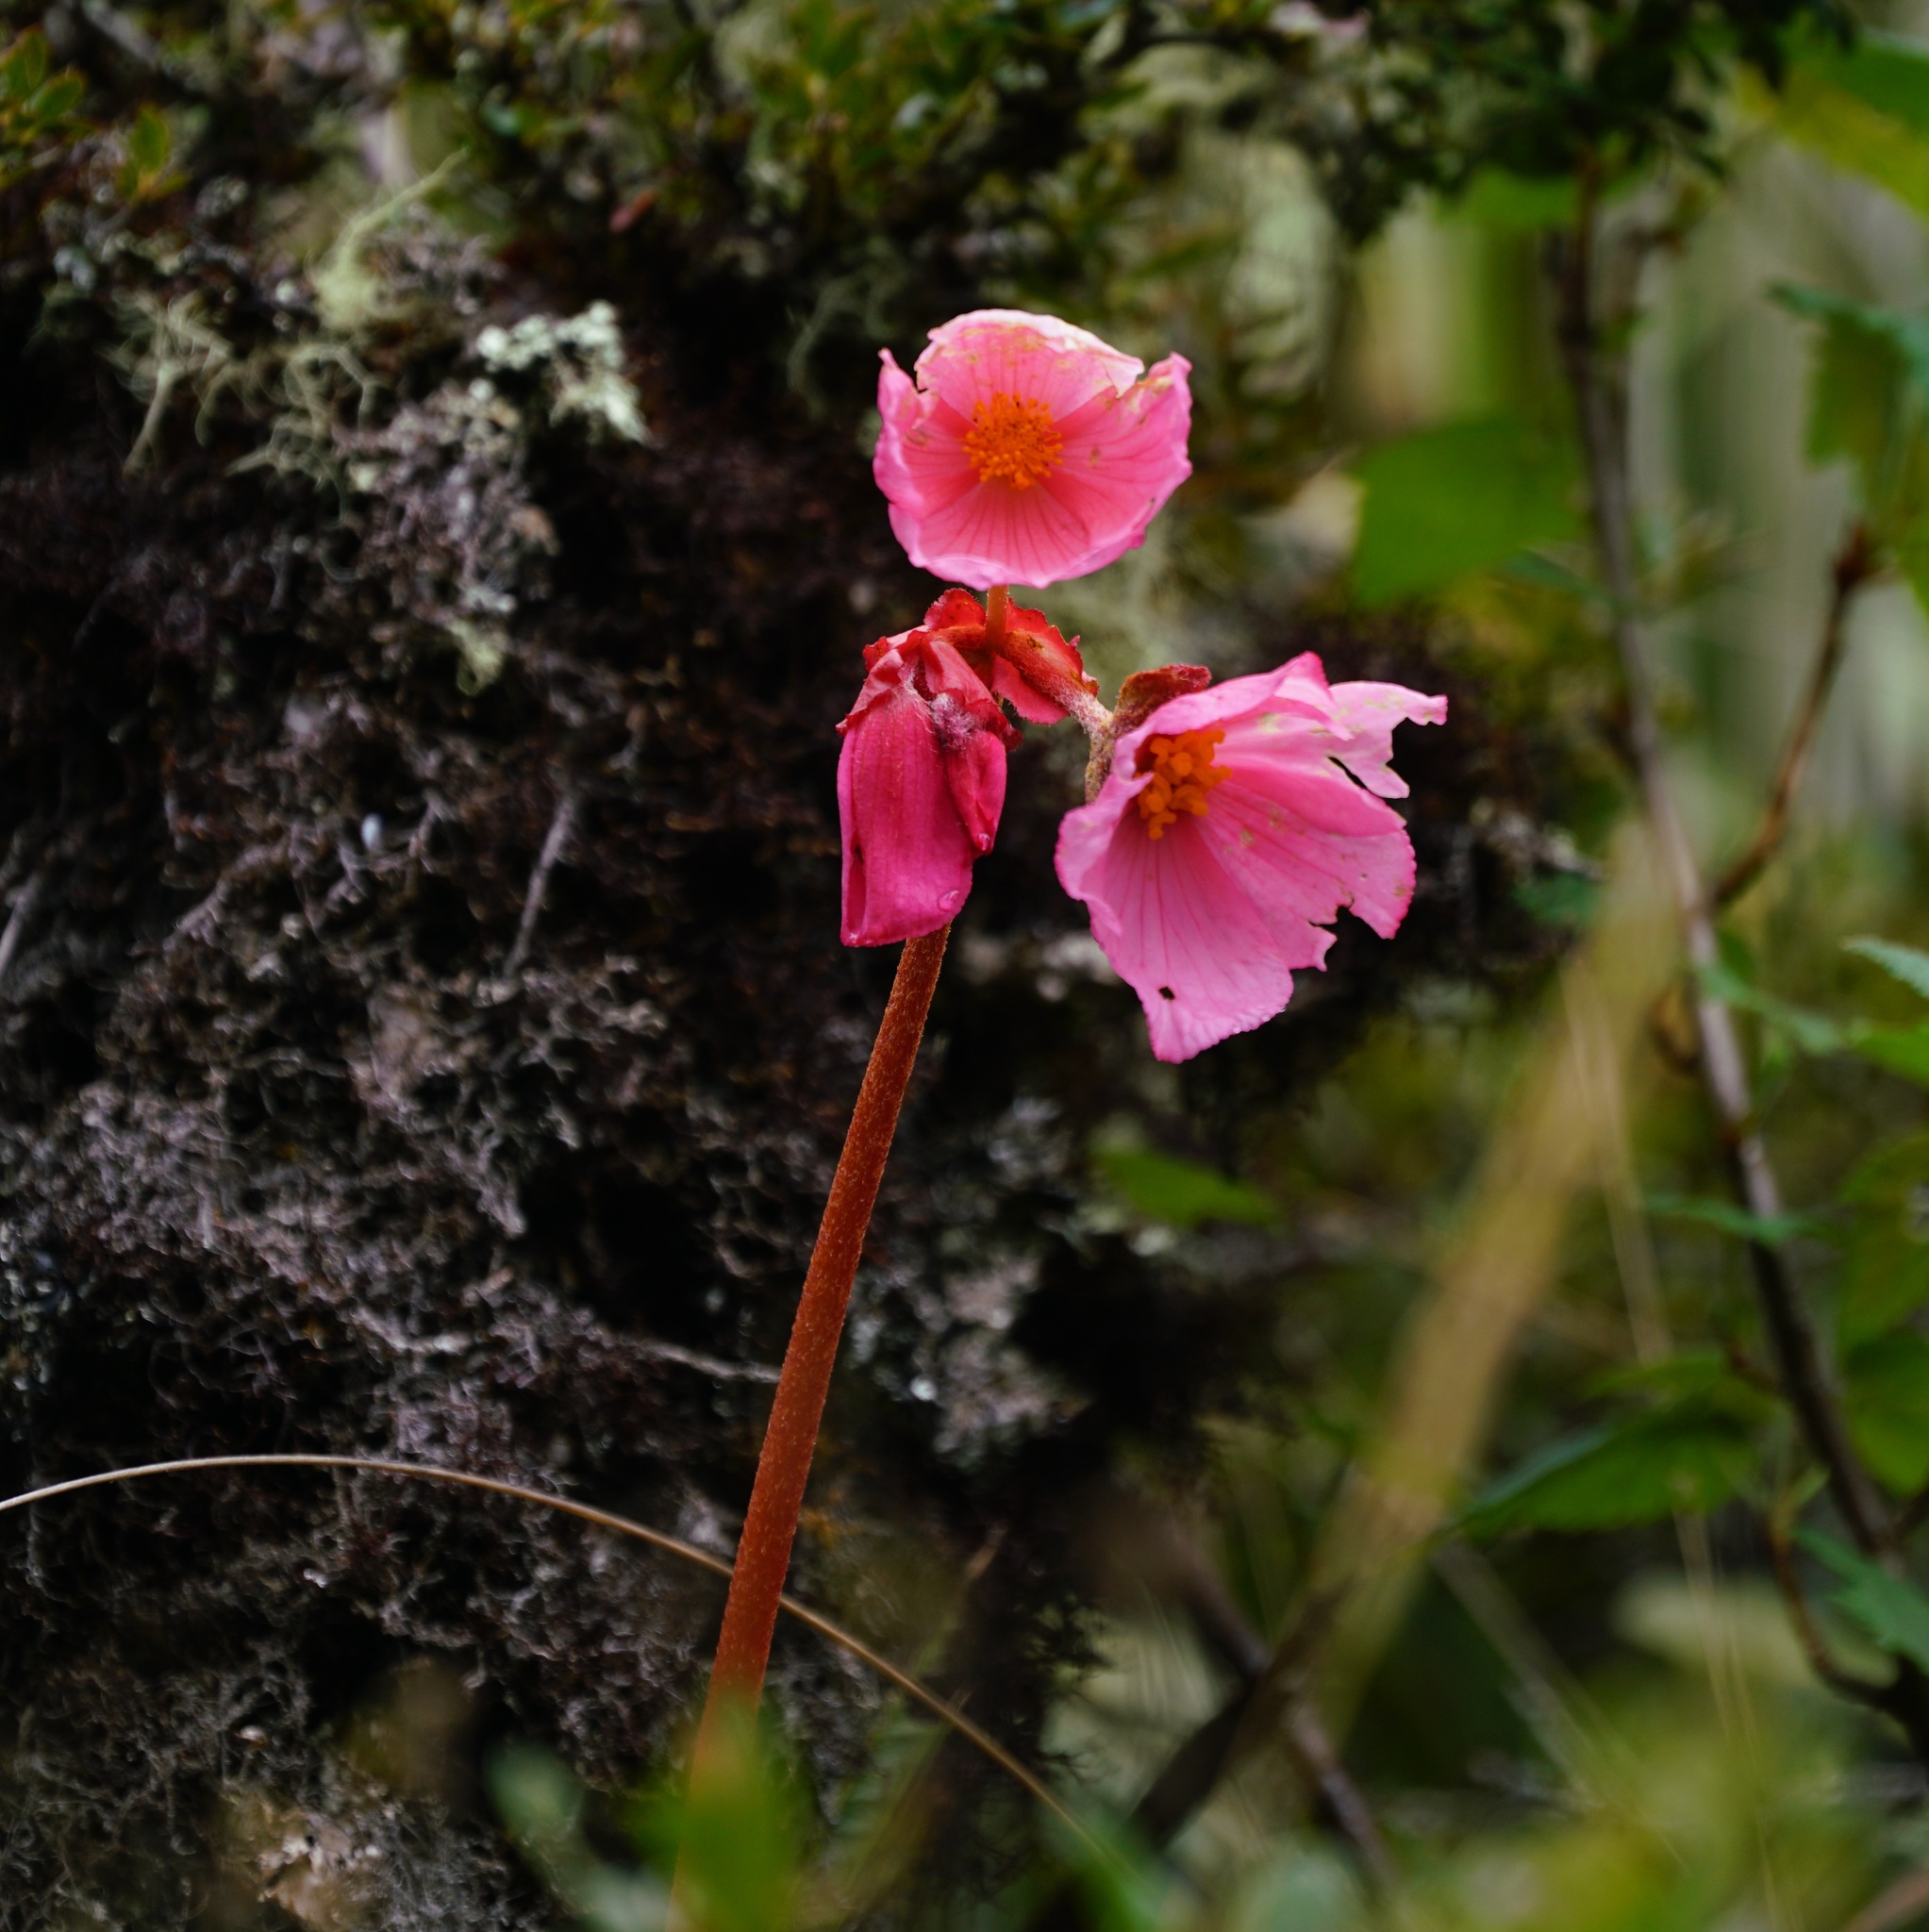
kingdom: Plantae
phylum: Tracheophyta
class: Magnoliopsida
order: Cucurbitales
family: Begoniaceae
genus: Begonia
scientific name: Begonia veitchii
